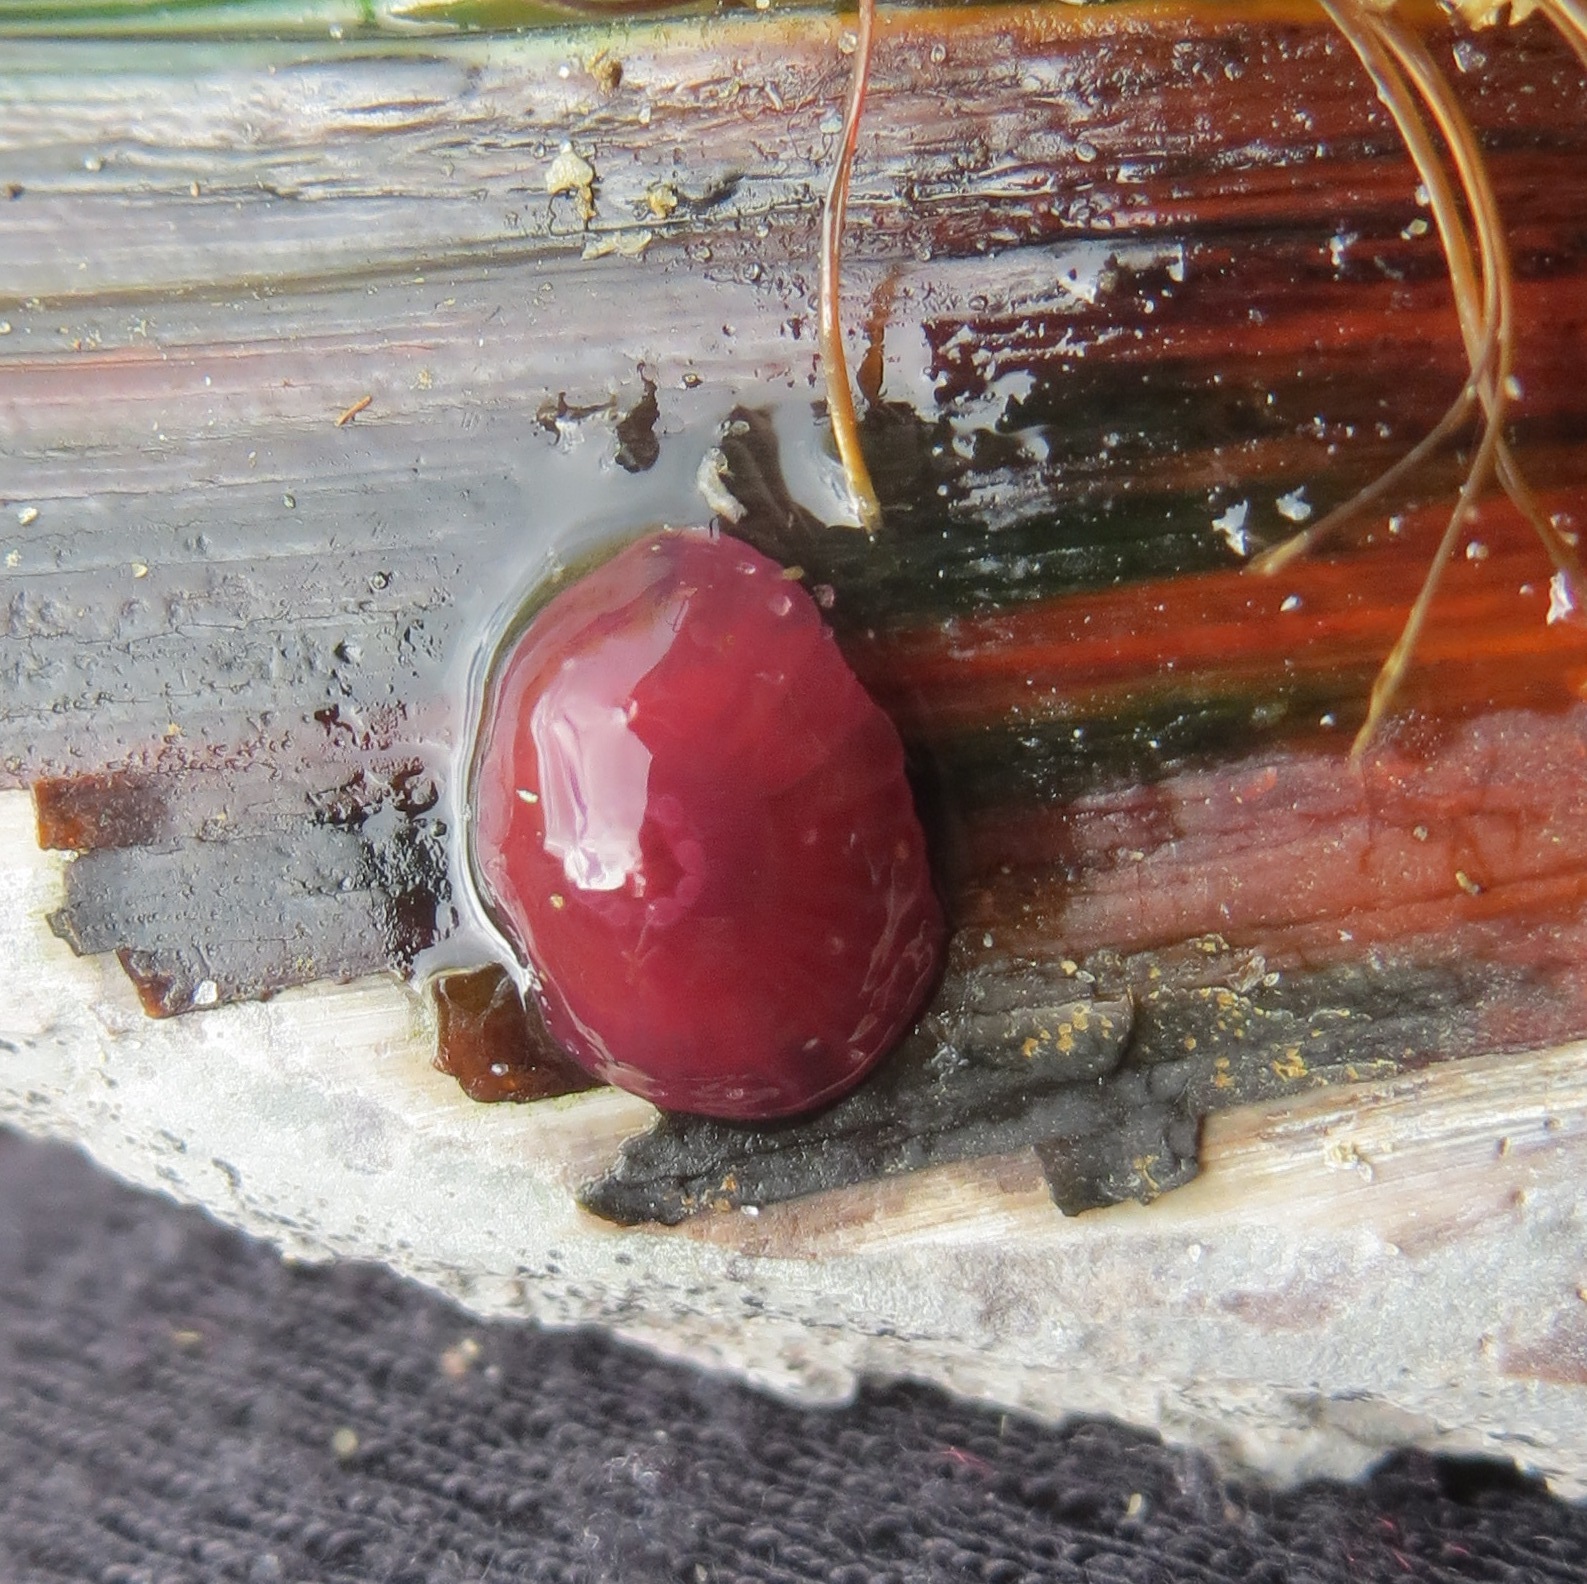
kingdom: Animalia
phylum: Cnidaria
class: Anthozoa
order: Actiniaria
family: Actiniidae
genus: Actinia
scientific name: Actinia tenebrosa
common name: Waratah anemone
